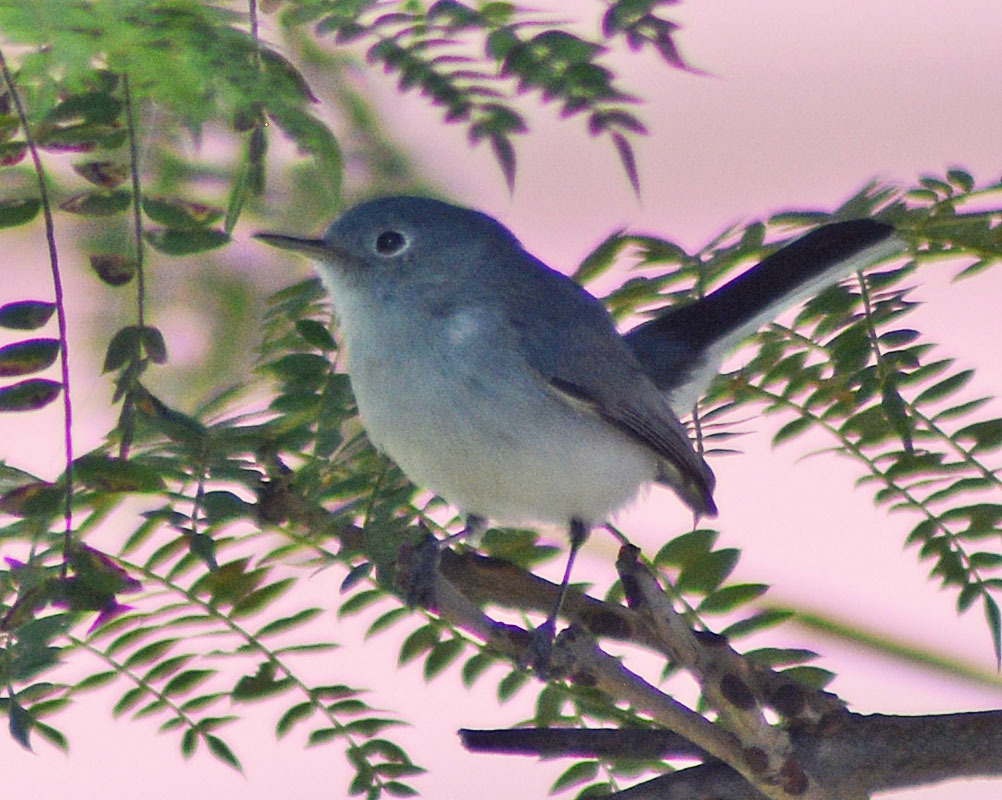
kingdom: Animalia
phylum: Chordata
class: Aves
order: Passeriformes
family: Polioptilidae
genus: Polioptila
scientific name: Polioptila caerulea
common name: Blue-gray gnatcatcher
